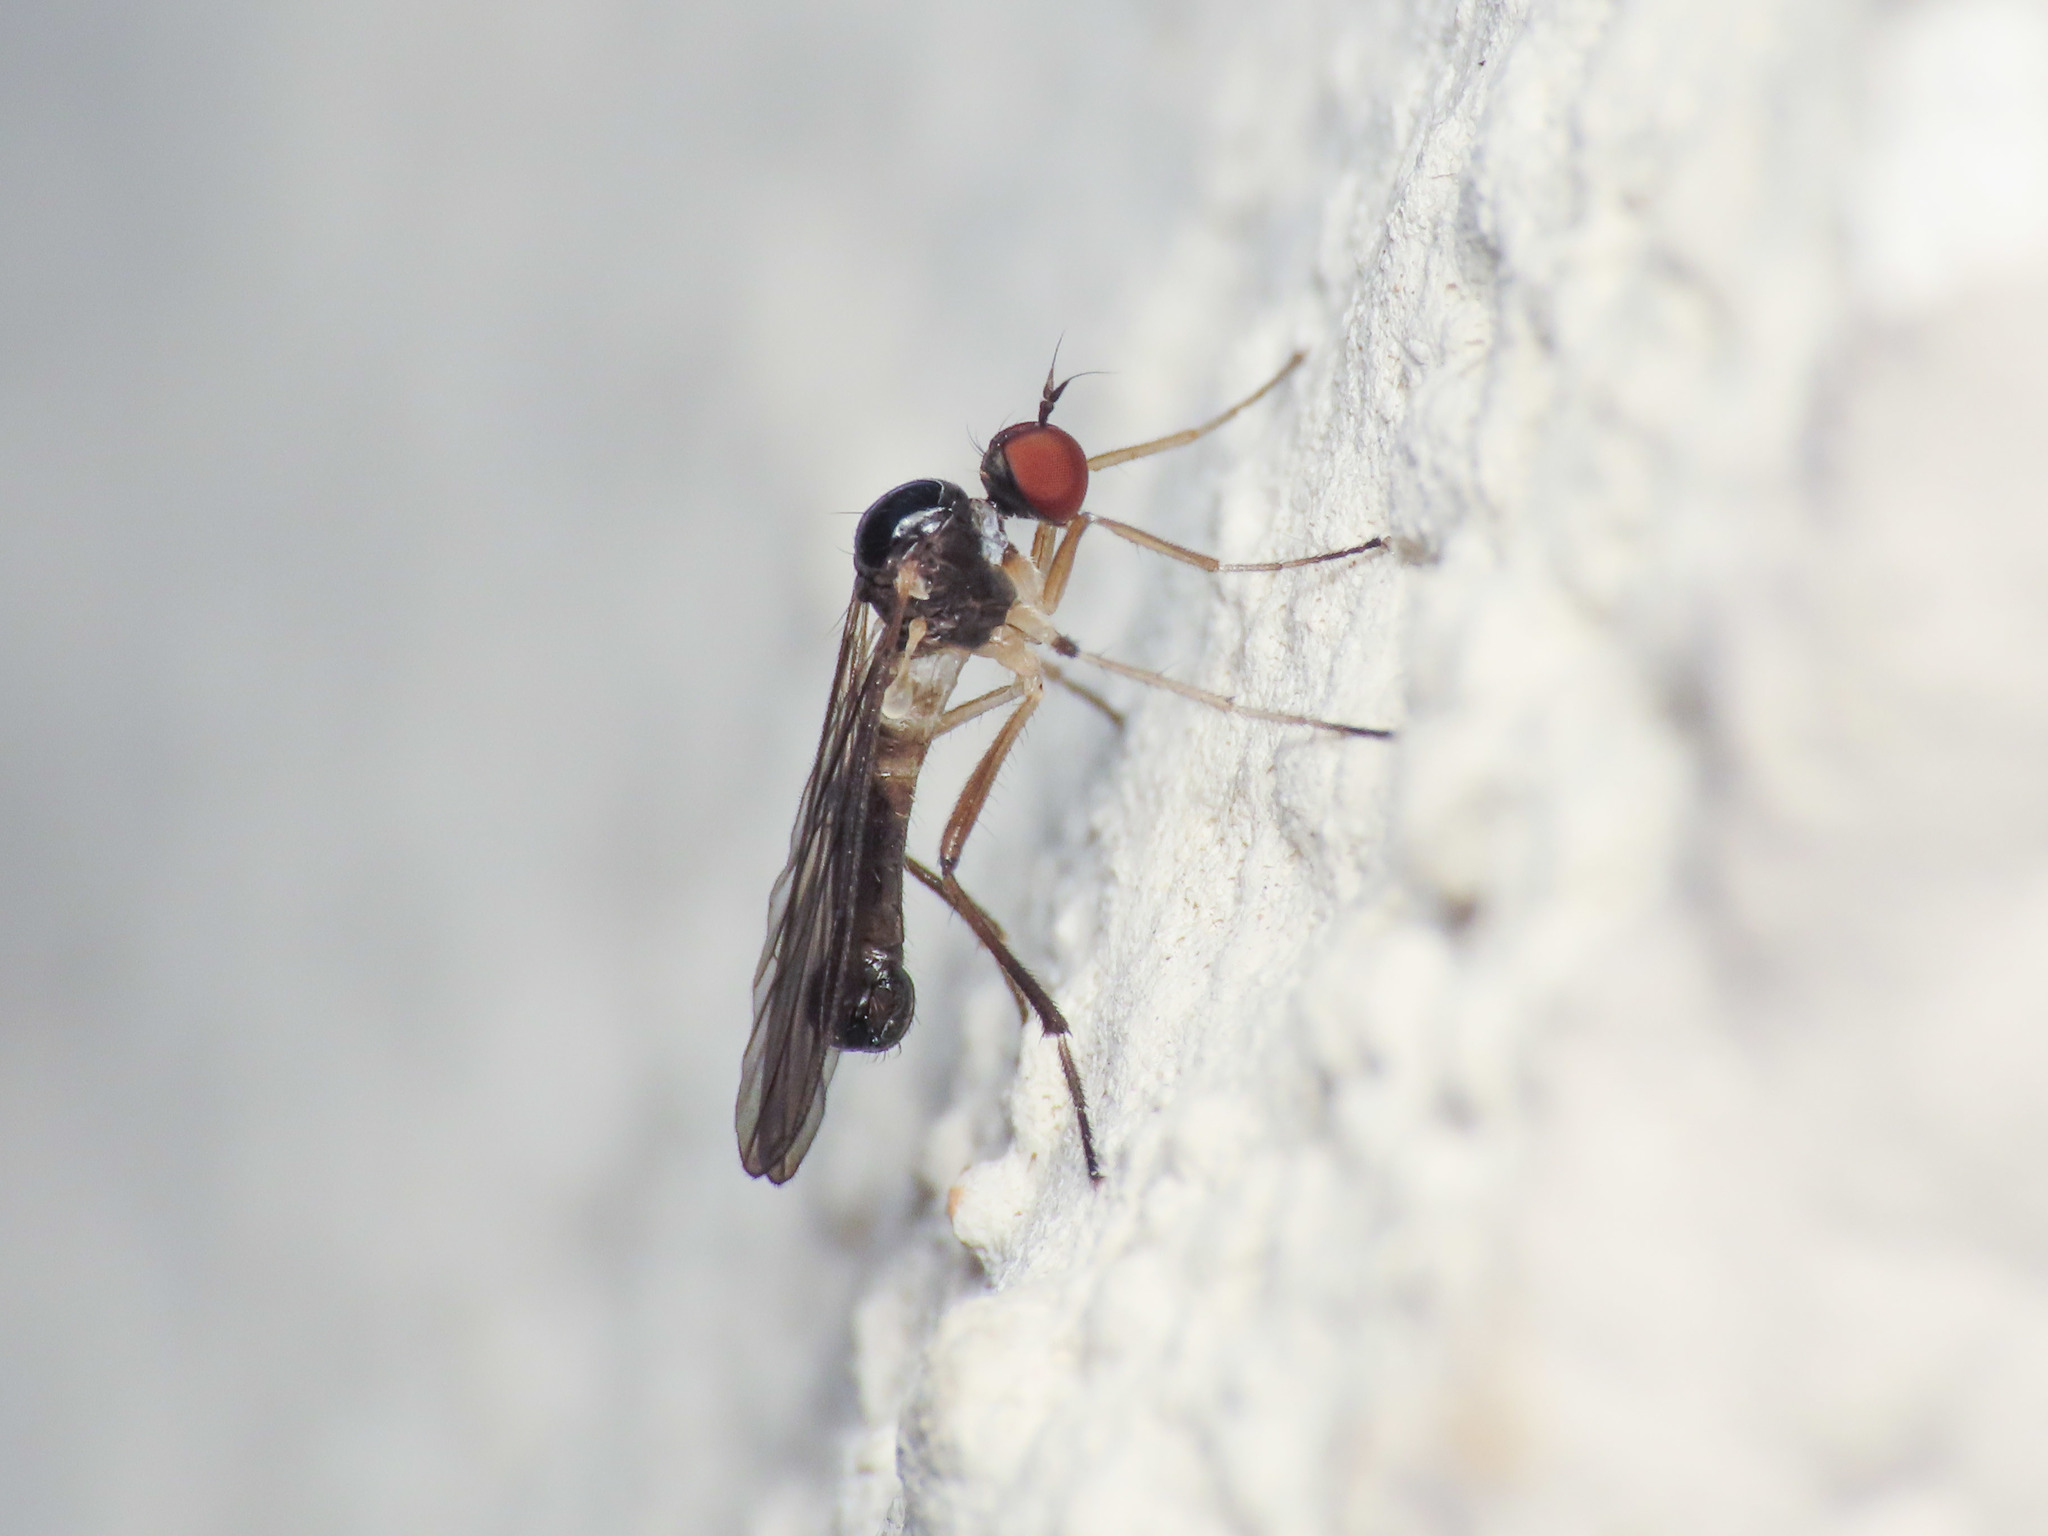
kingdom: Animalia
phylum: Arthropoda
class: Insecta
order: Diptera
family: Hybotidae
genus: Oropezella
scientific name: Oropezella sphenoptera
